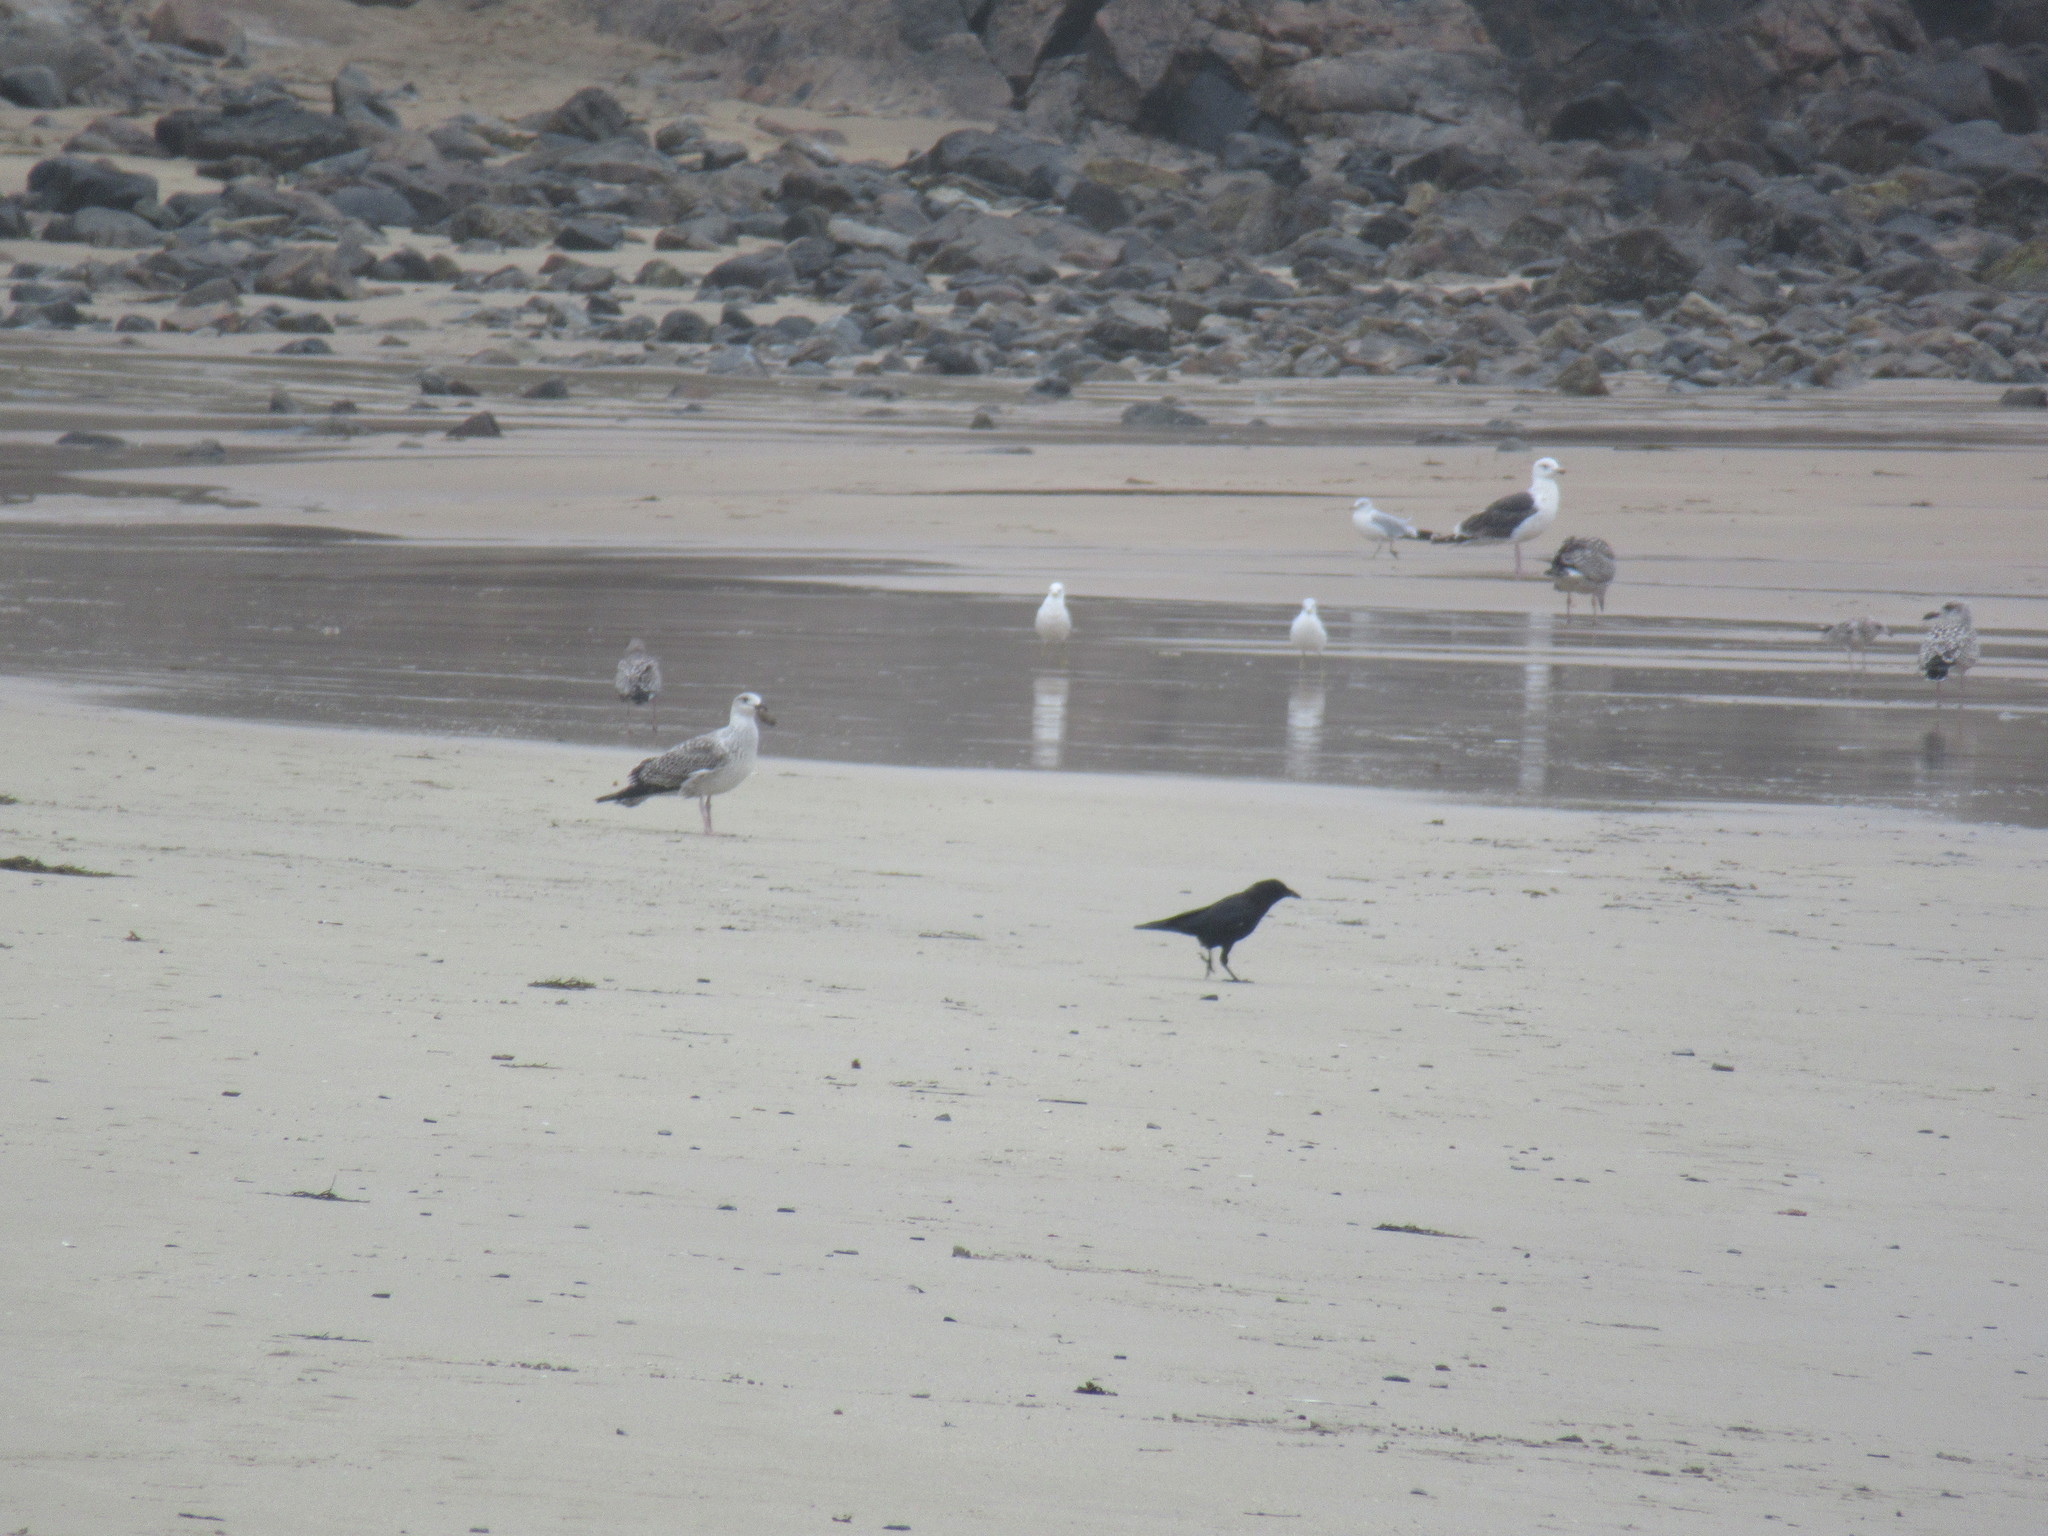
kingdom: Animalia
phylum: Chordata
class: Aves
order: Passeriformes
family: Corvidae
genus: Corvus
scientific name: Corvus brachyrhynchos
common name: American crow
